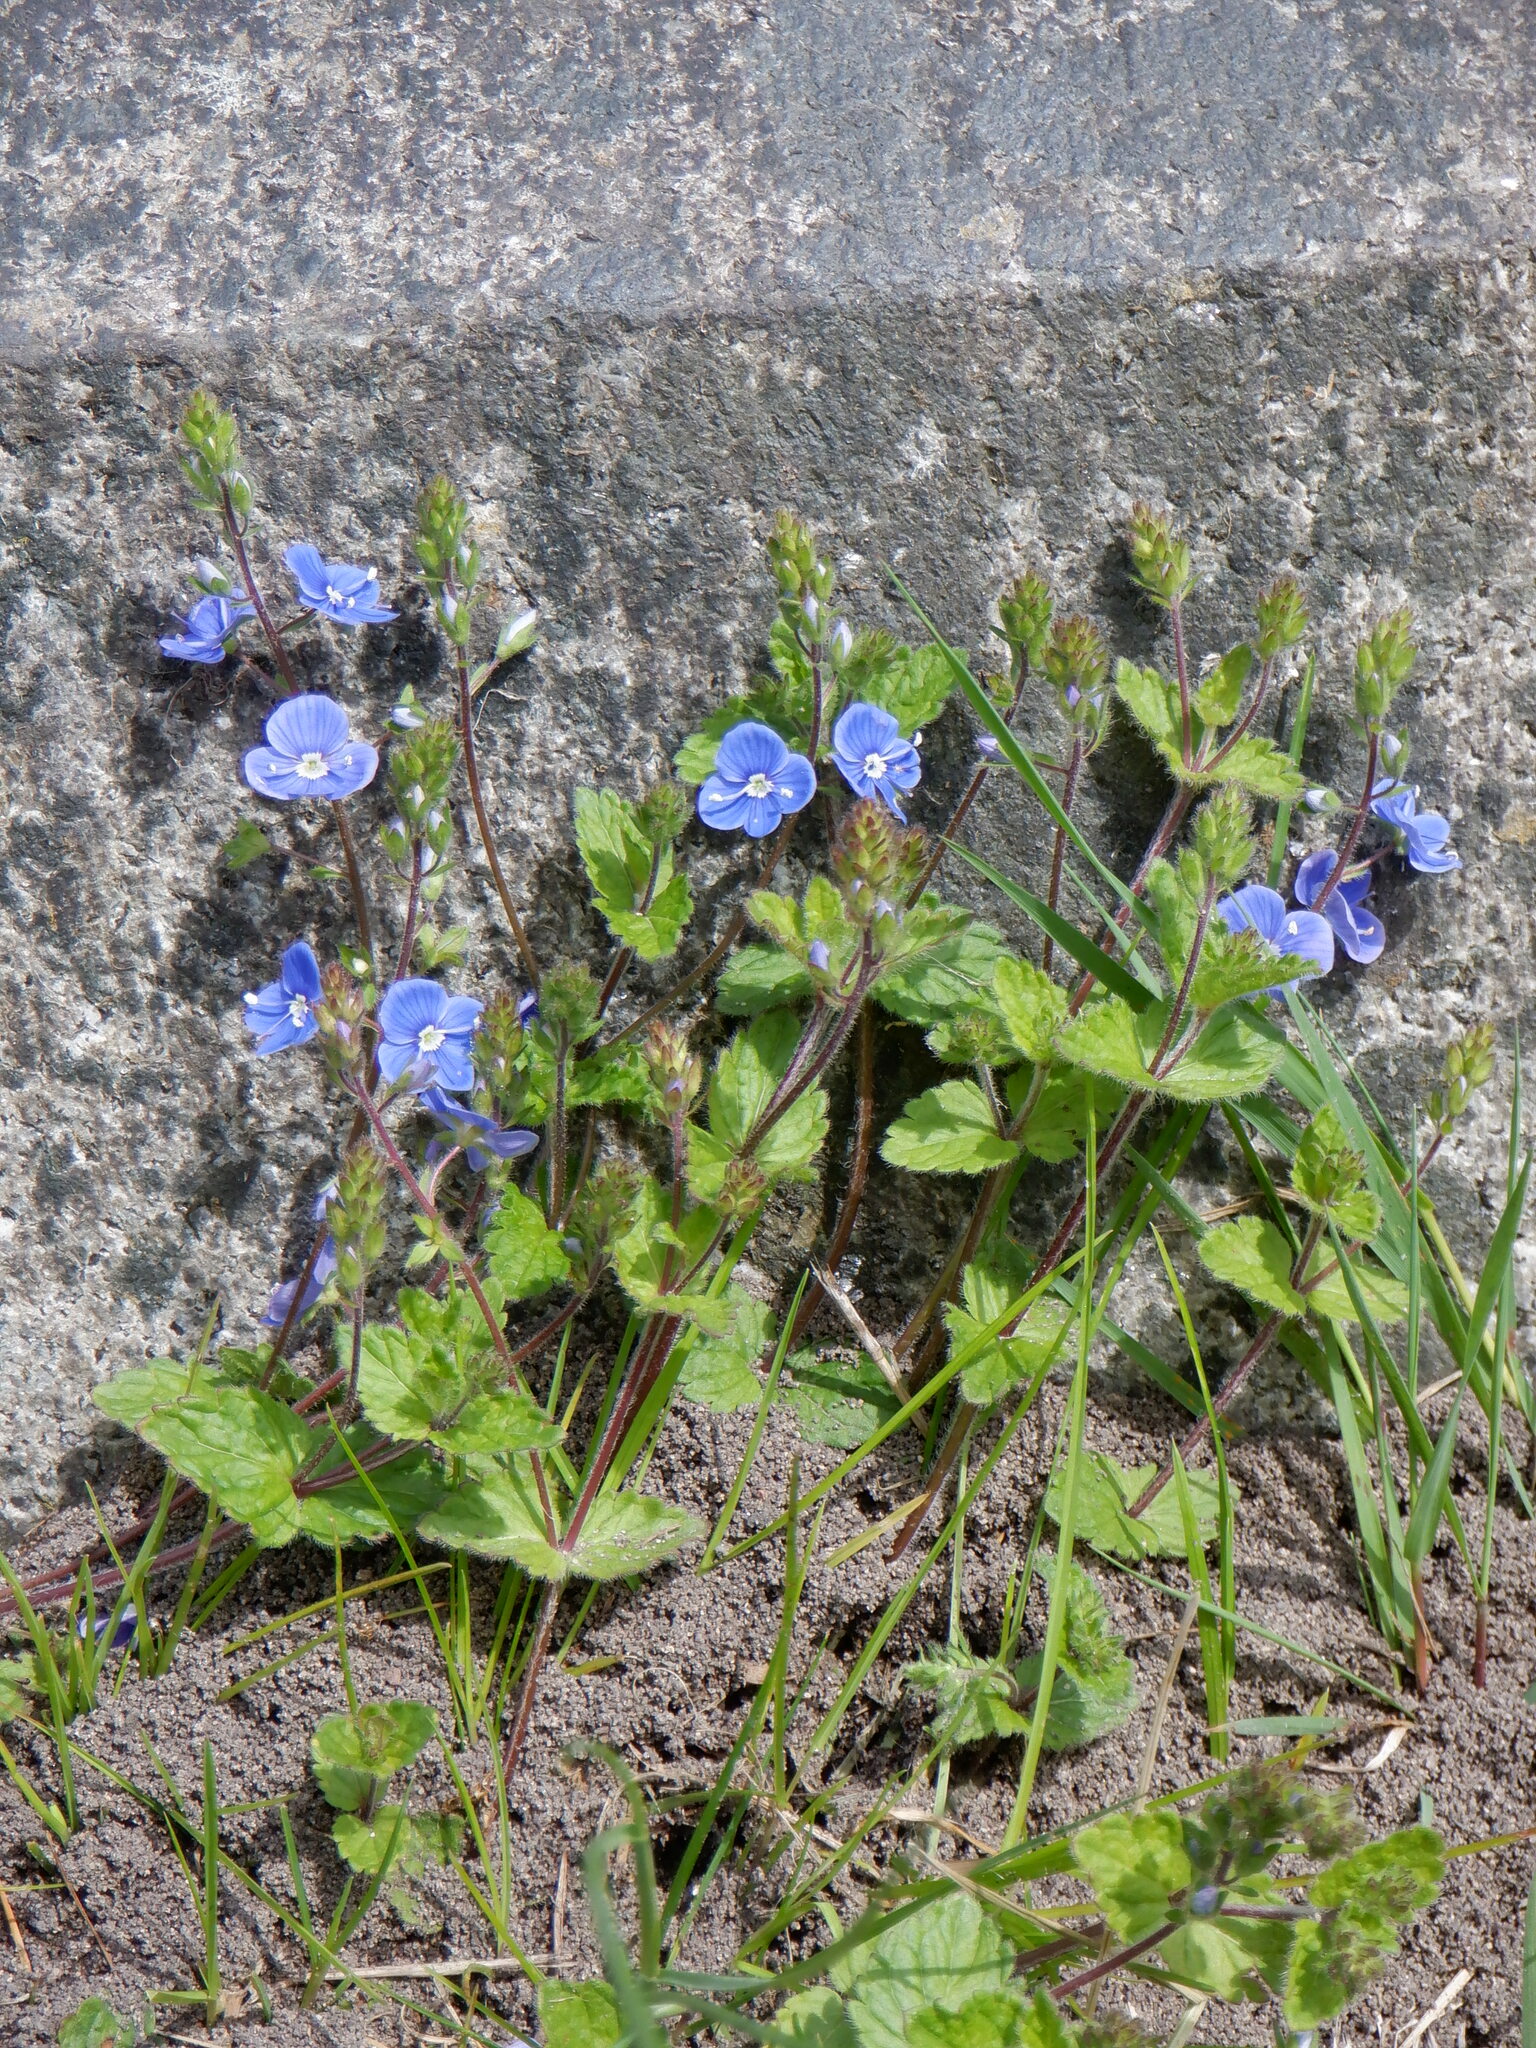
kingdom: Plantae
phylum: Tracheophyta
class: Magnoliopsida
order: Lamiales
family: Plantaginaceae
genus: Veronica
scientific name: Veronica chamaedrys
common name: Germander speedwell
